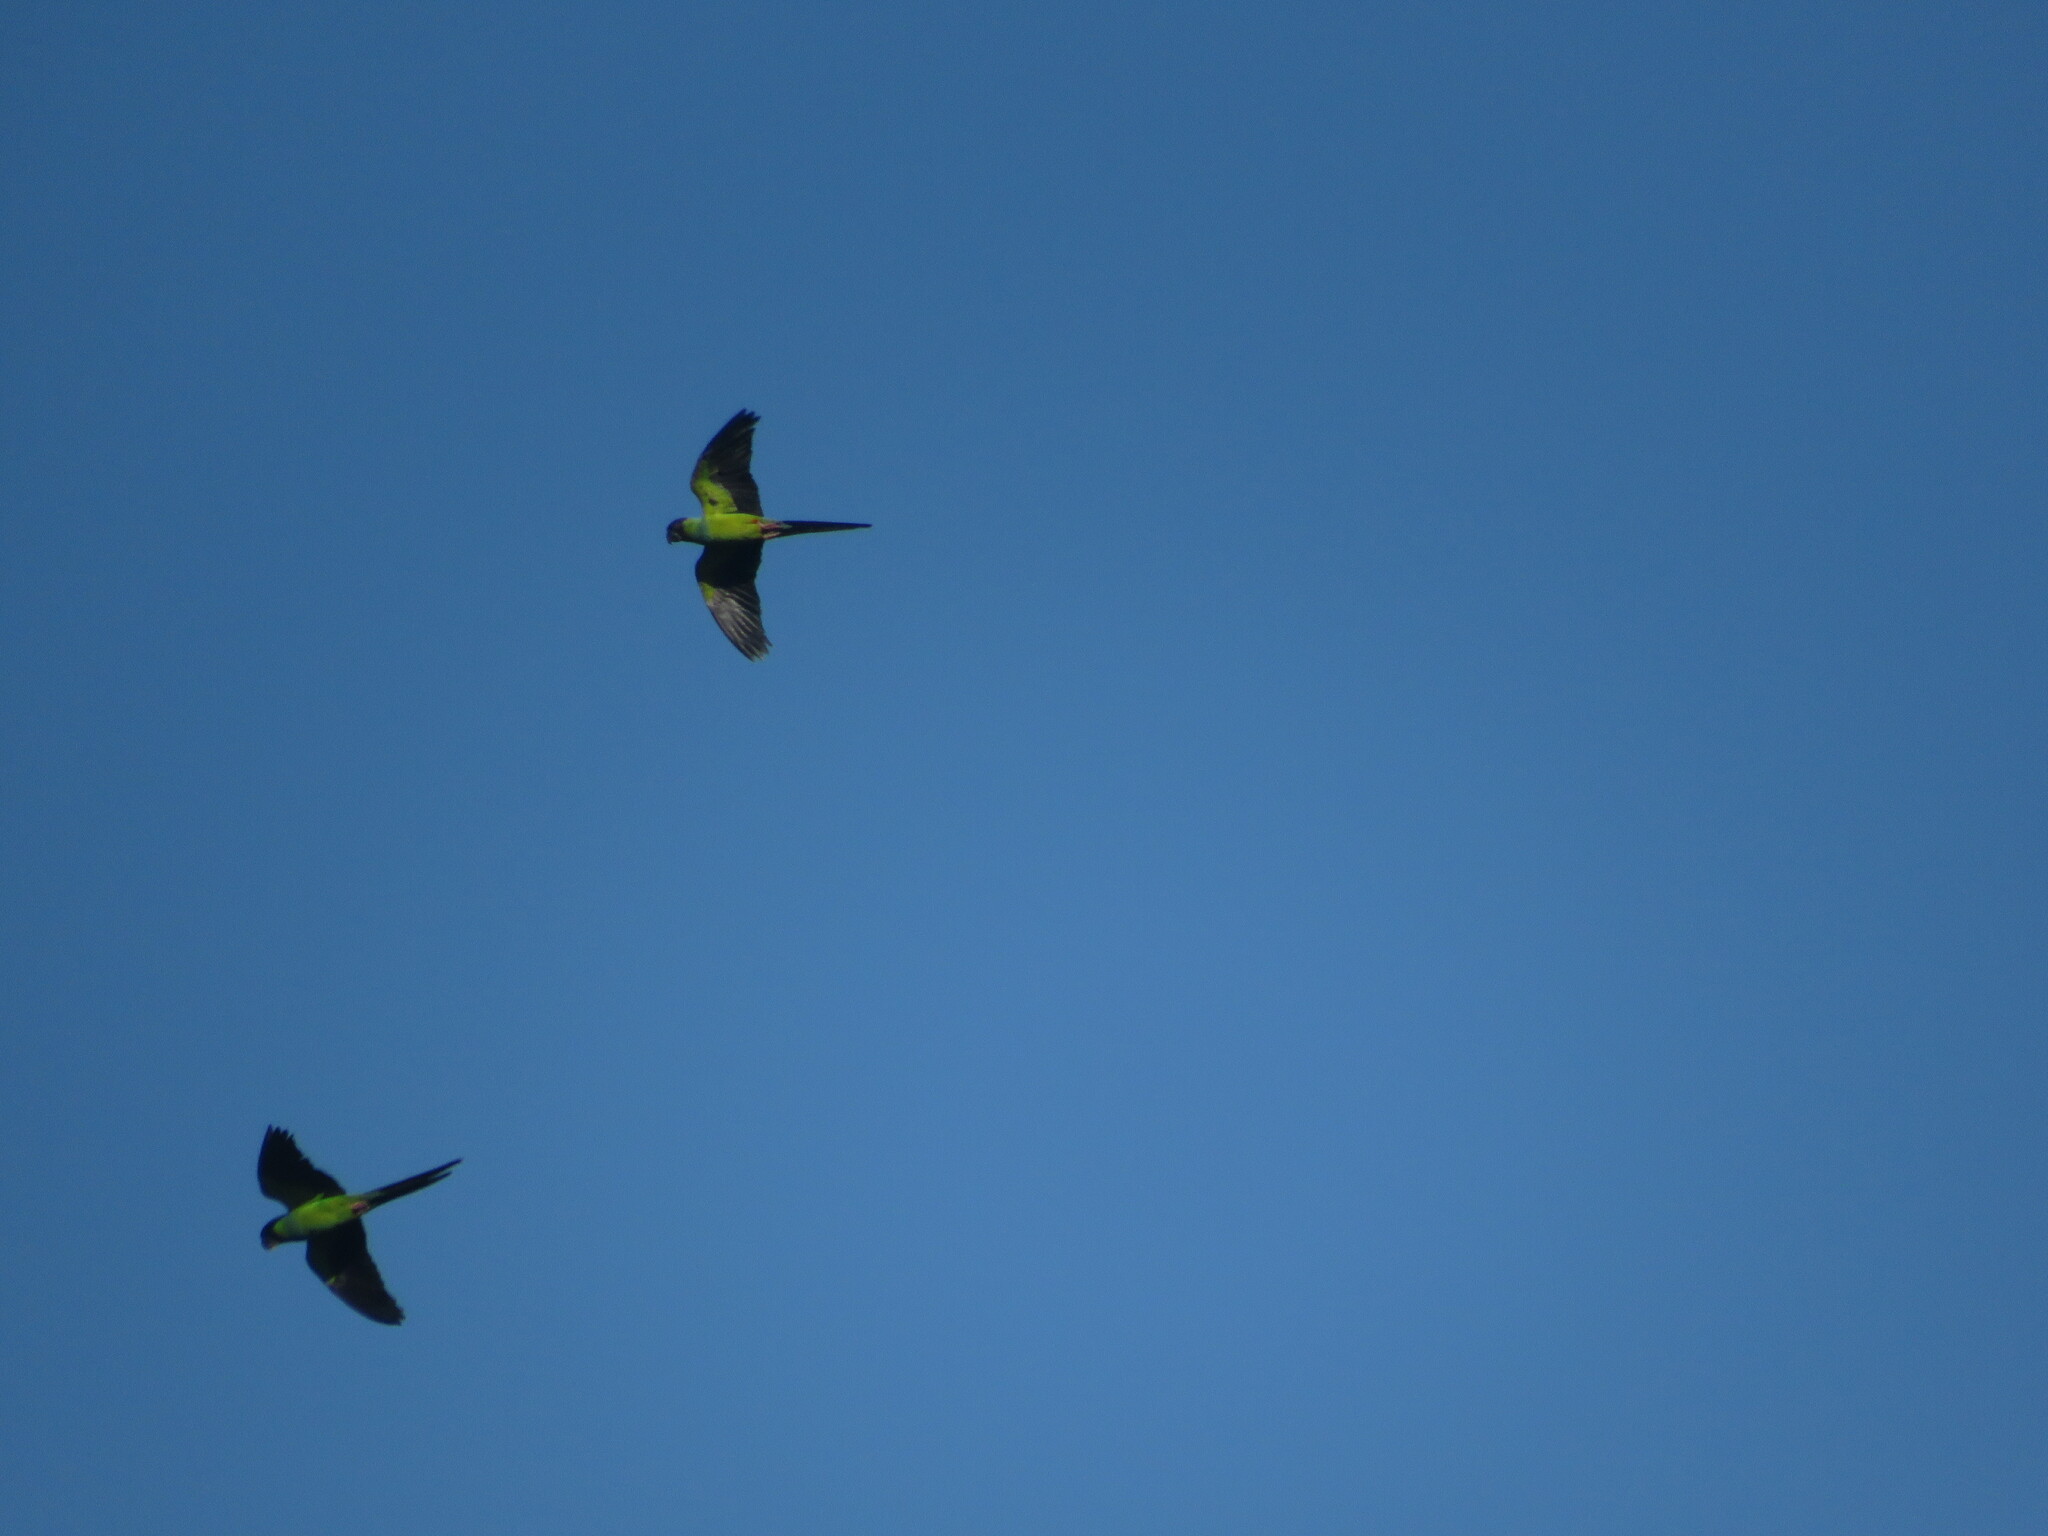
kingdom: Animalia
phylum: Chordata
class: Aves
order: Psittaciformes
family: Psittacidae
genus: Nandayus
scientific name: Nandayus nenday
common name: Nanday parakeet
